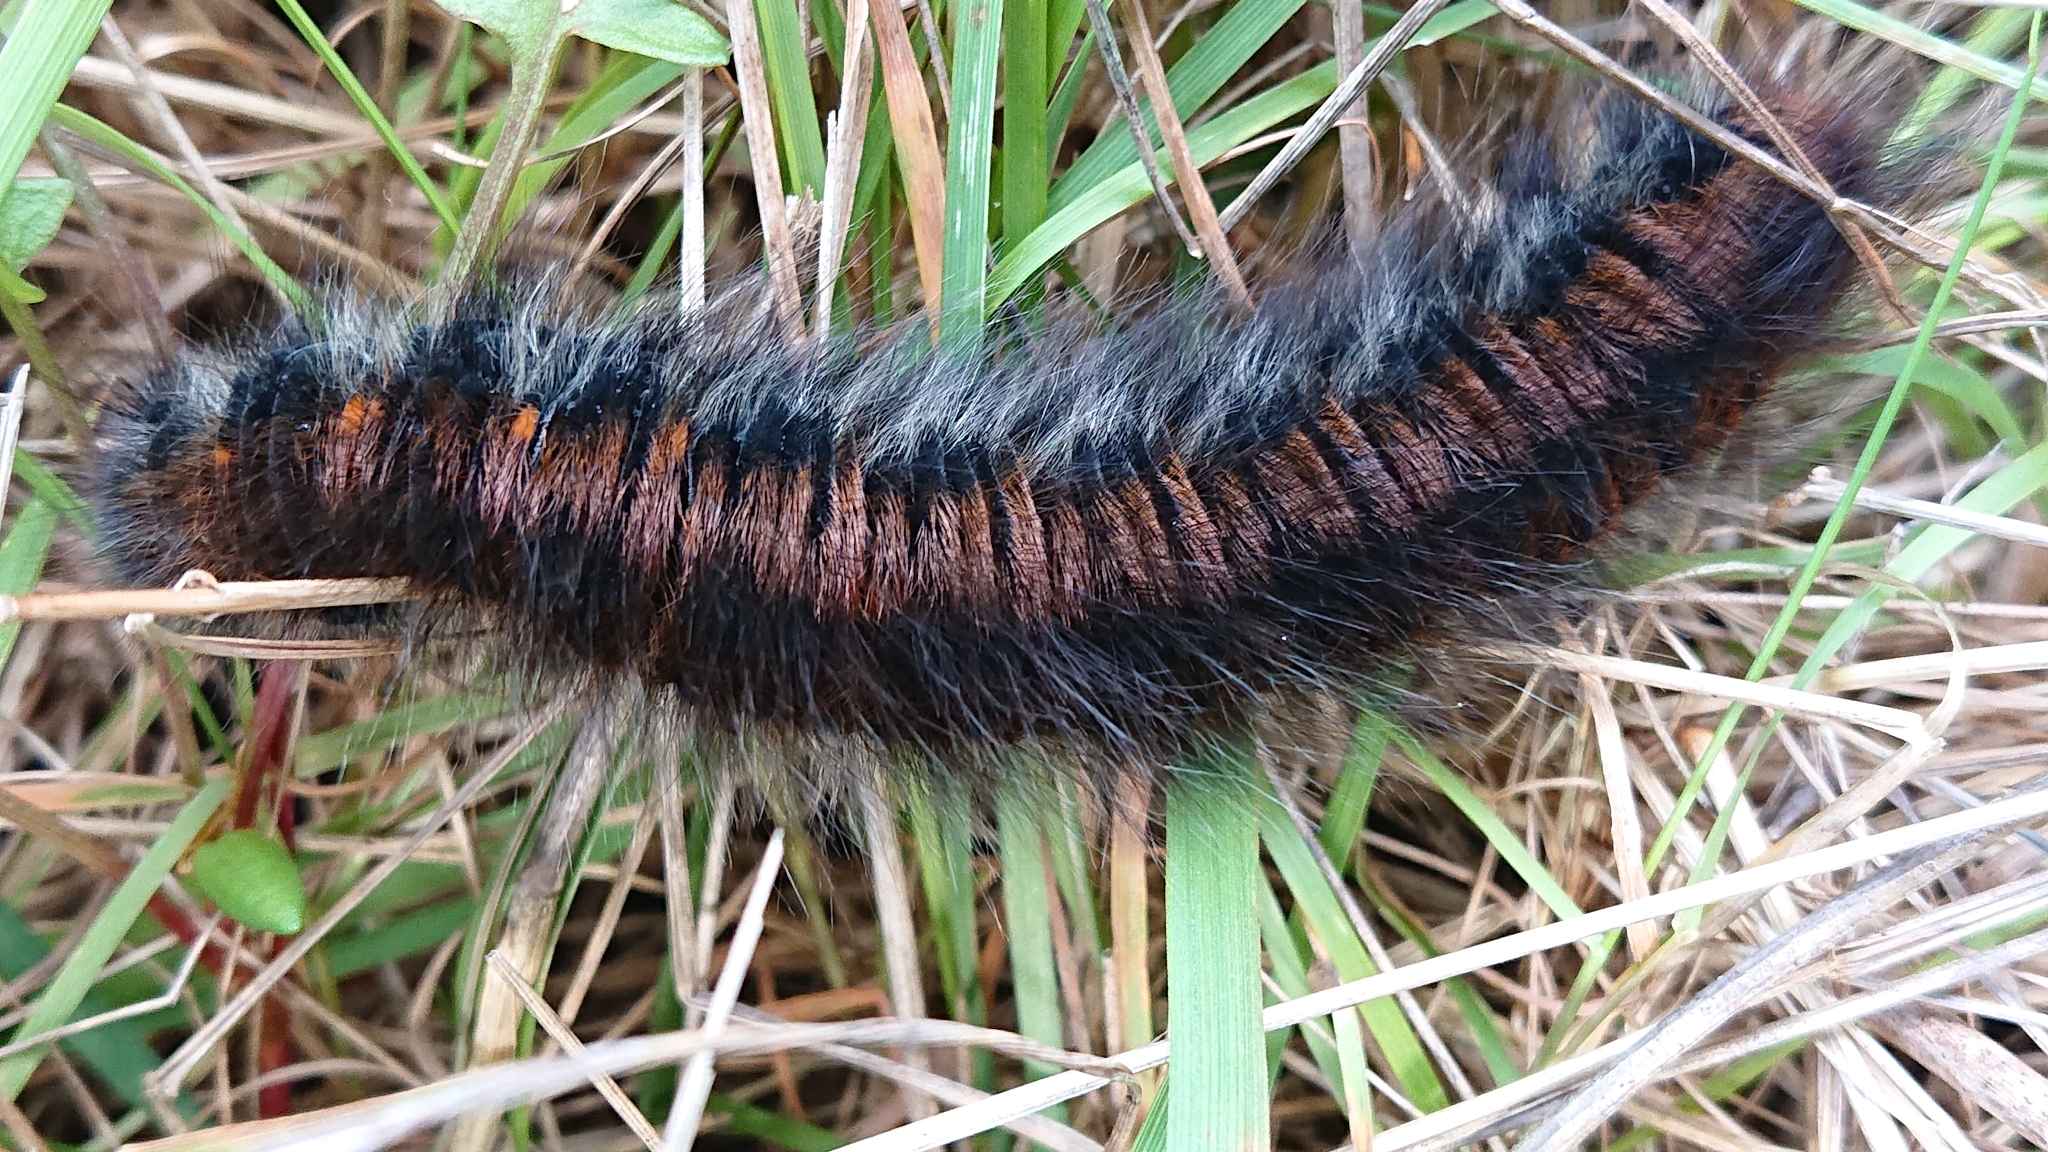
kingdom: Animalia
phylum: Arthropoda
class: Insecta
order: Lepidoptera
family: Lasiocampidae
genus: Macrothylacia
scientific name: Macrothylacia rubi
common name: Fox moth
